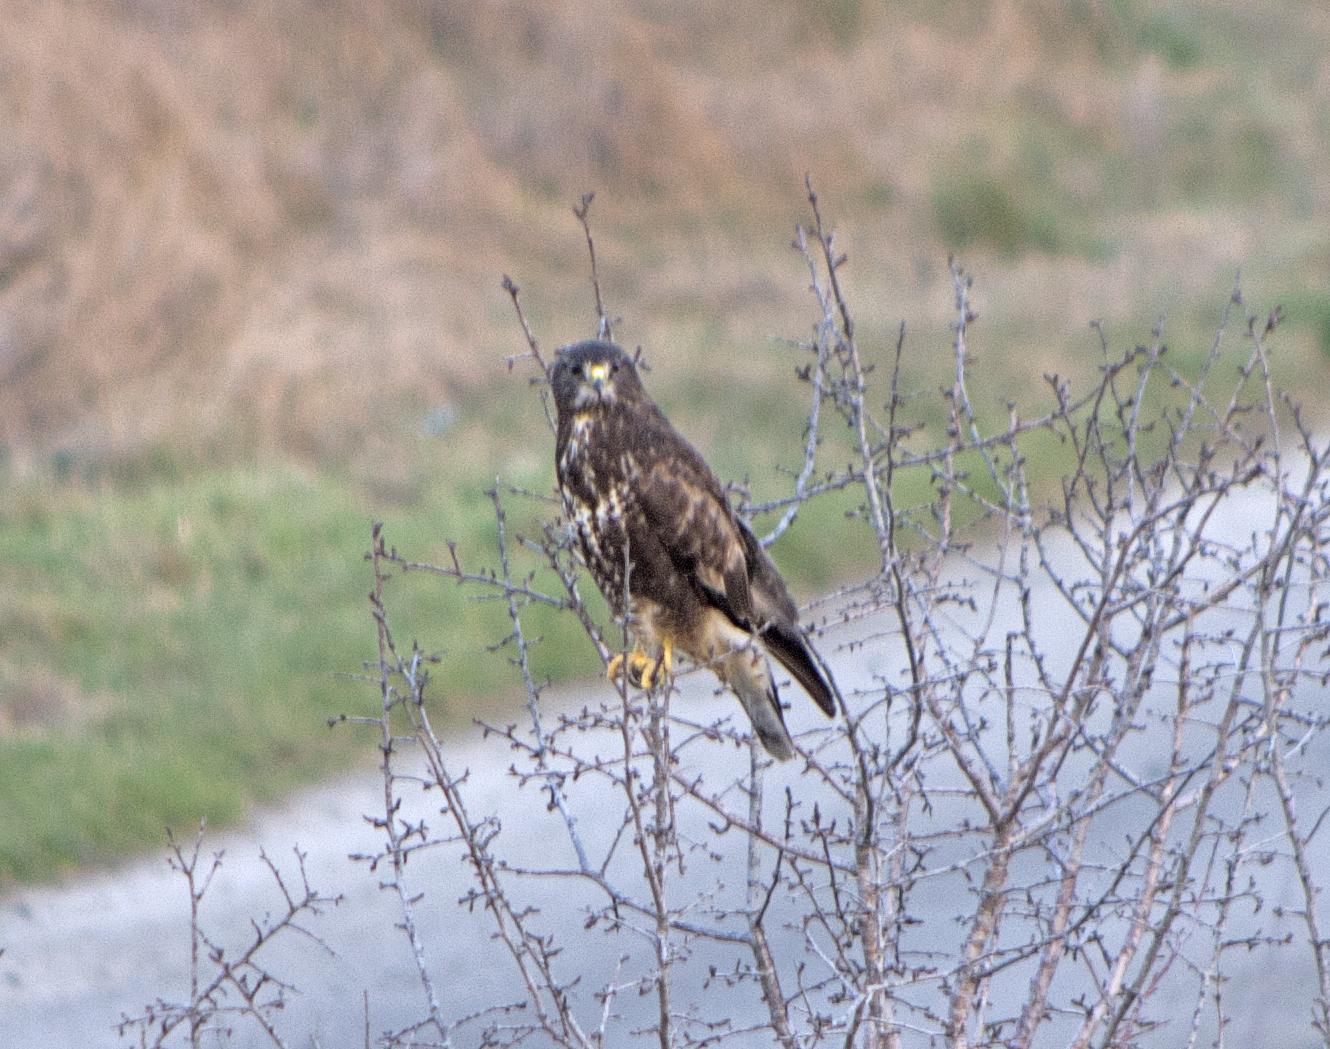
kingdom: Animalia
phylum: Chordata
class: Aves
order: Accipitriformes
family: Accipitridae
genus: Buteo
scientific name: Buteo buteo
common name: Common buzzard
